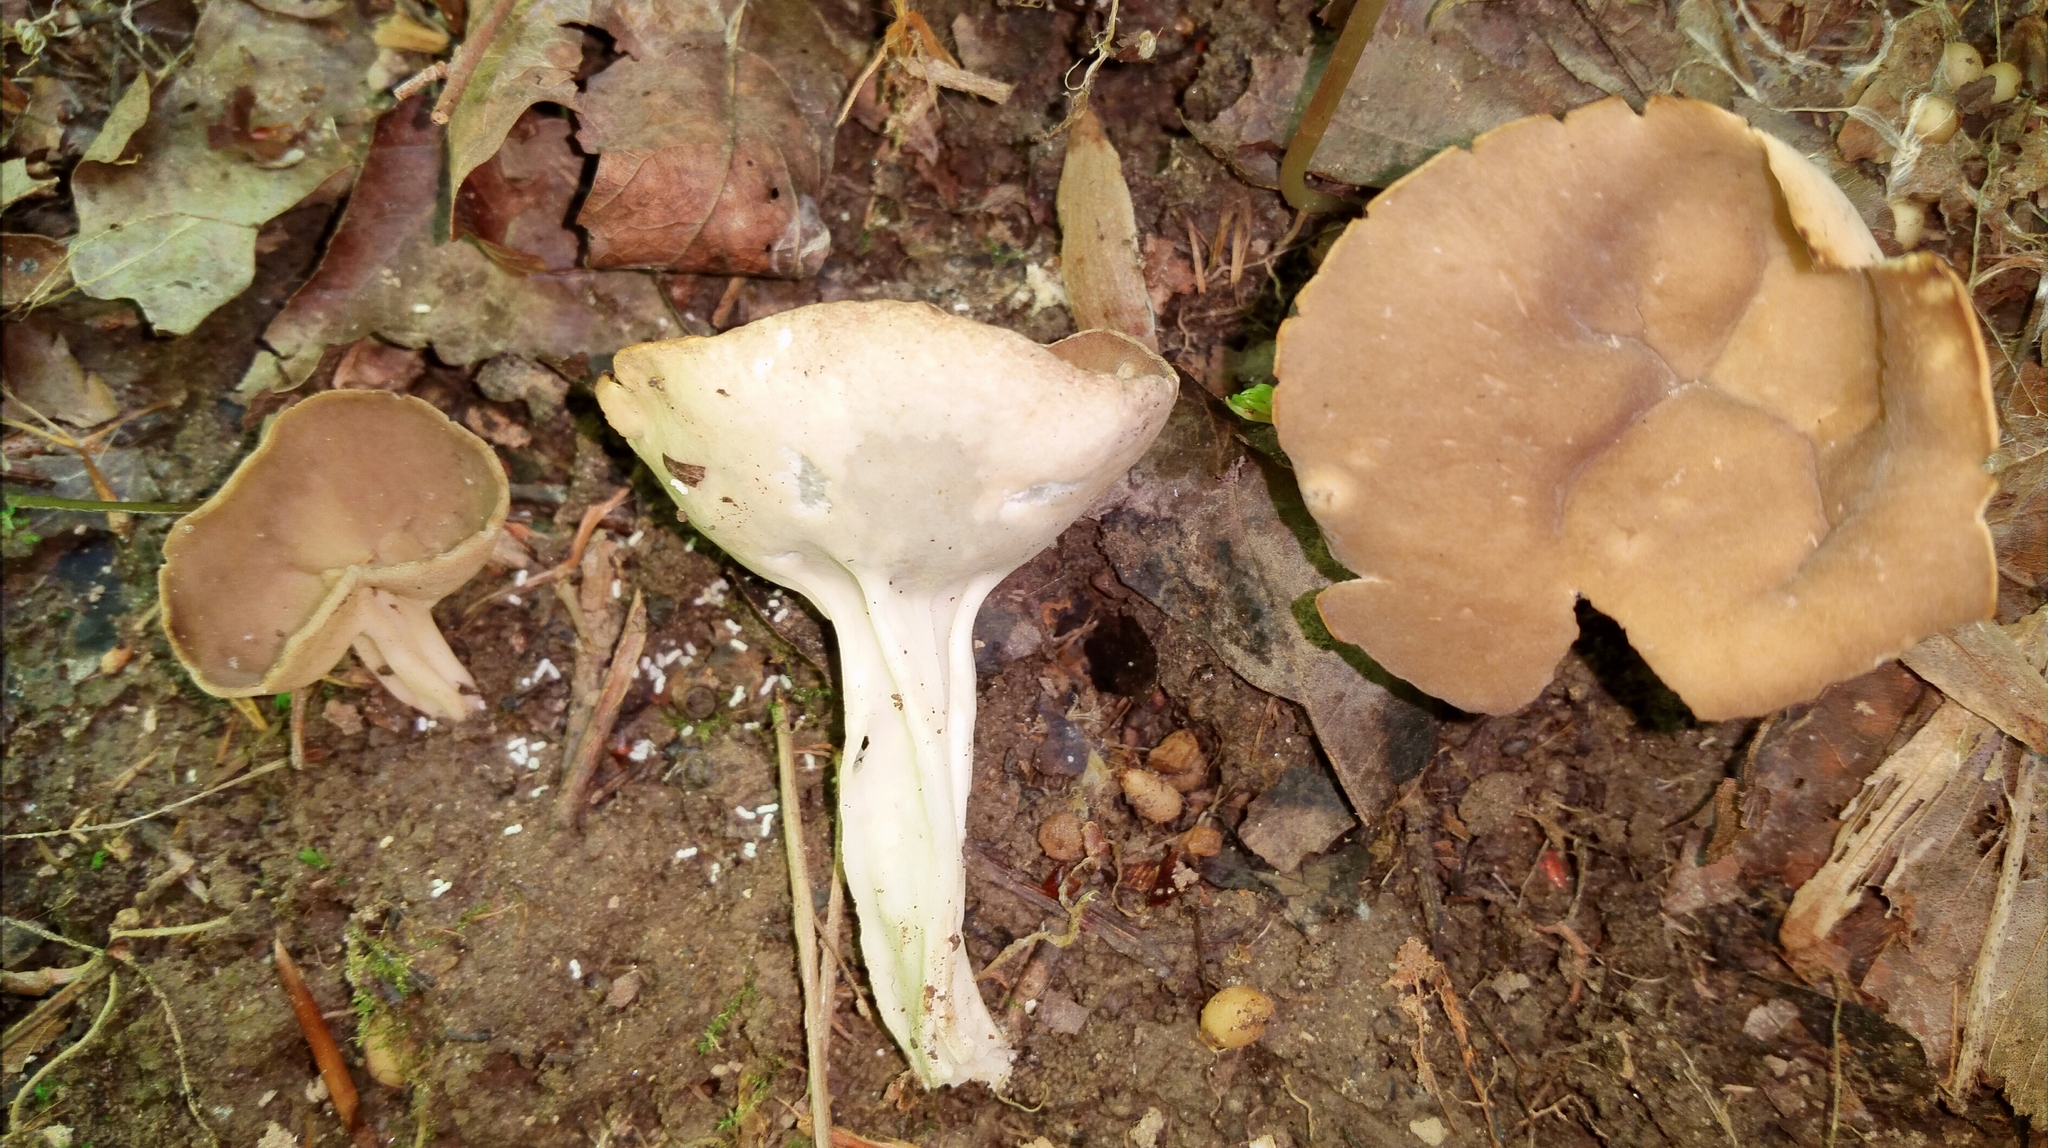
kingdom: Fungi
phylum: Ascomycota
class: Pezizomycetes
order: Pezizales
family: Helvellaceae
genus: Helvella
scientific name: Helvella acetabulum
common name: Vinegar cup
